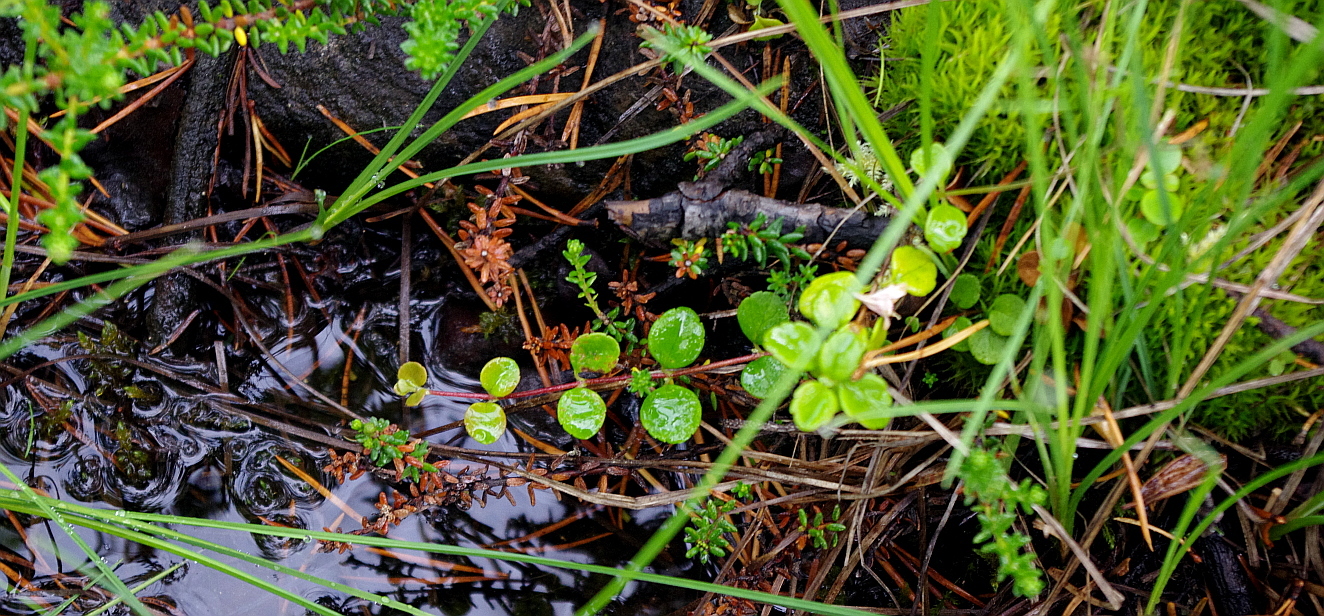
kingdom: Plantae
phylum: Tracheophyta
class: Magnoliopsida
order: Dipsacales
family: Caprifoliaceae
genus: Linnaea
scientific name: Linnaea borealis
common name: Twinflower
